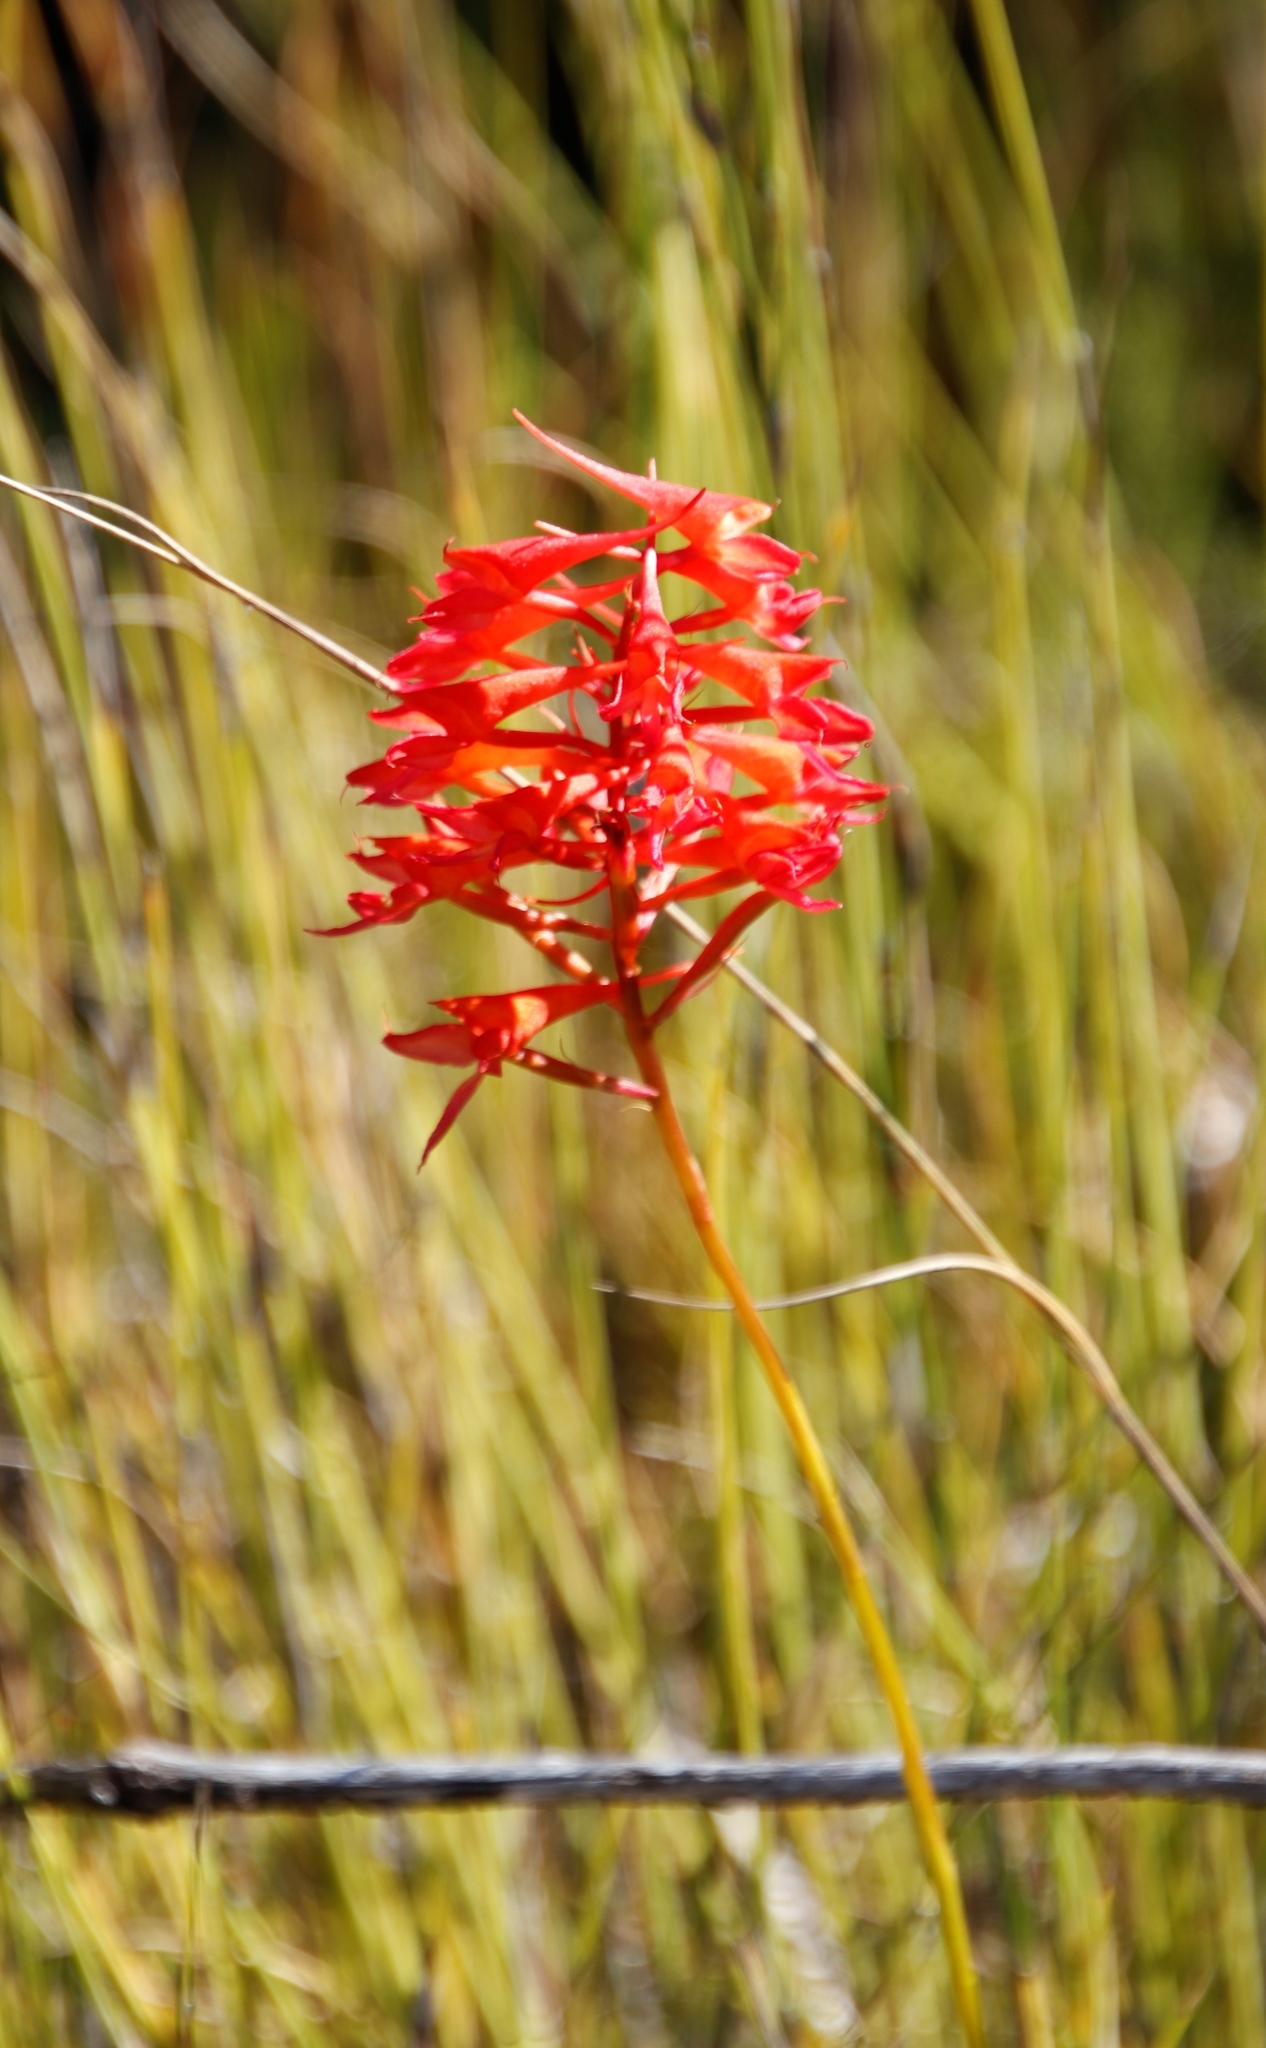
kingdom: Plantae
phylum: Tracheophyta
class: Liliopsida
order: Asparagales
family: Orchidaceae
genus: Disa
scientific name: Disa ferruginea
